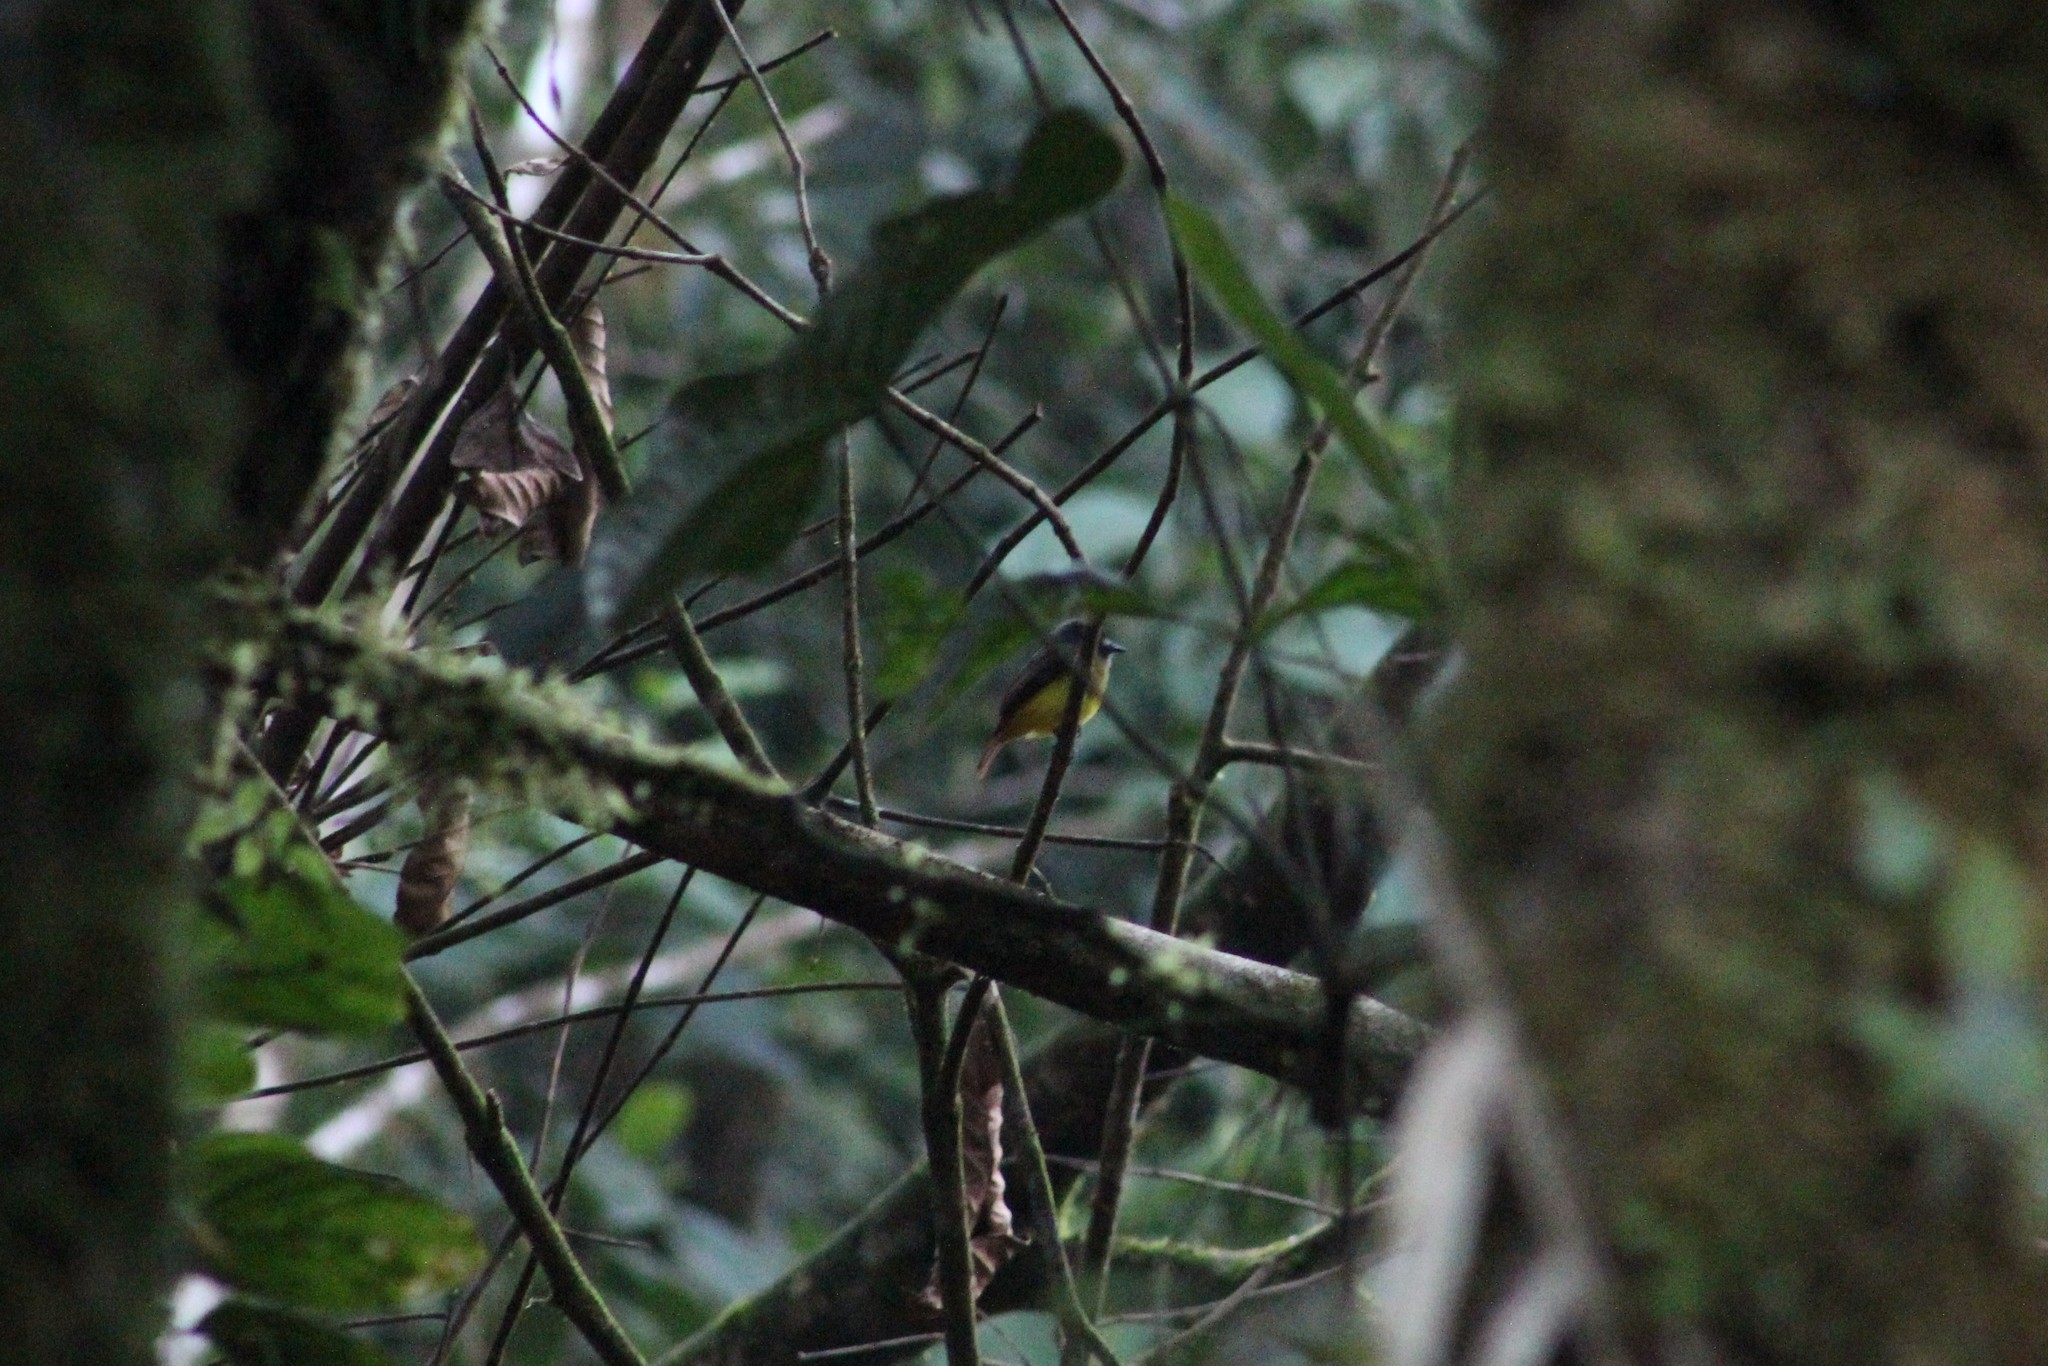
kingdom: Animalia
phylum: Chordata
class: Aves
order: Passeriformes
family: Tyrannidae
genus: Myiotriccus
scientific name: Myiotriccus ornatus
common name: Ornate flycatcher
